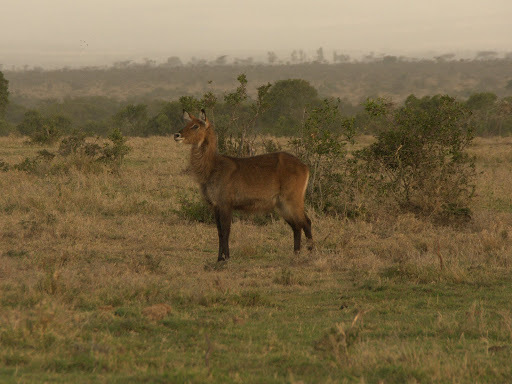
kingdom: Animalia
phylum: Chordata
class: Mammalia
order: Artiodactyla
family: Bovidae
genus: Kobus
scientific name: Kobus ellipsiprymnus
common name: Waterbuck
